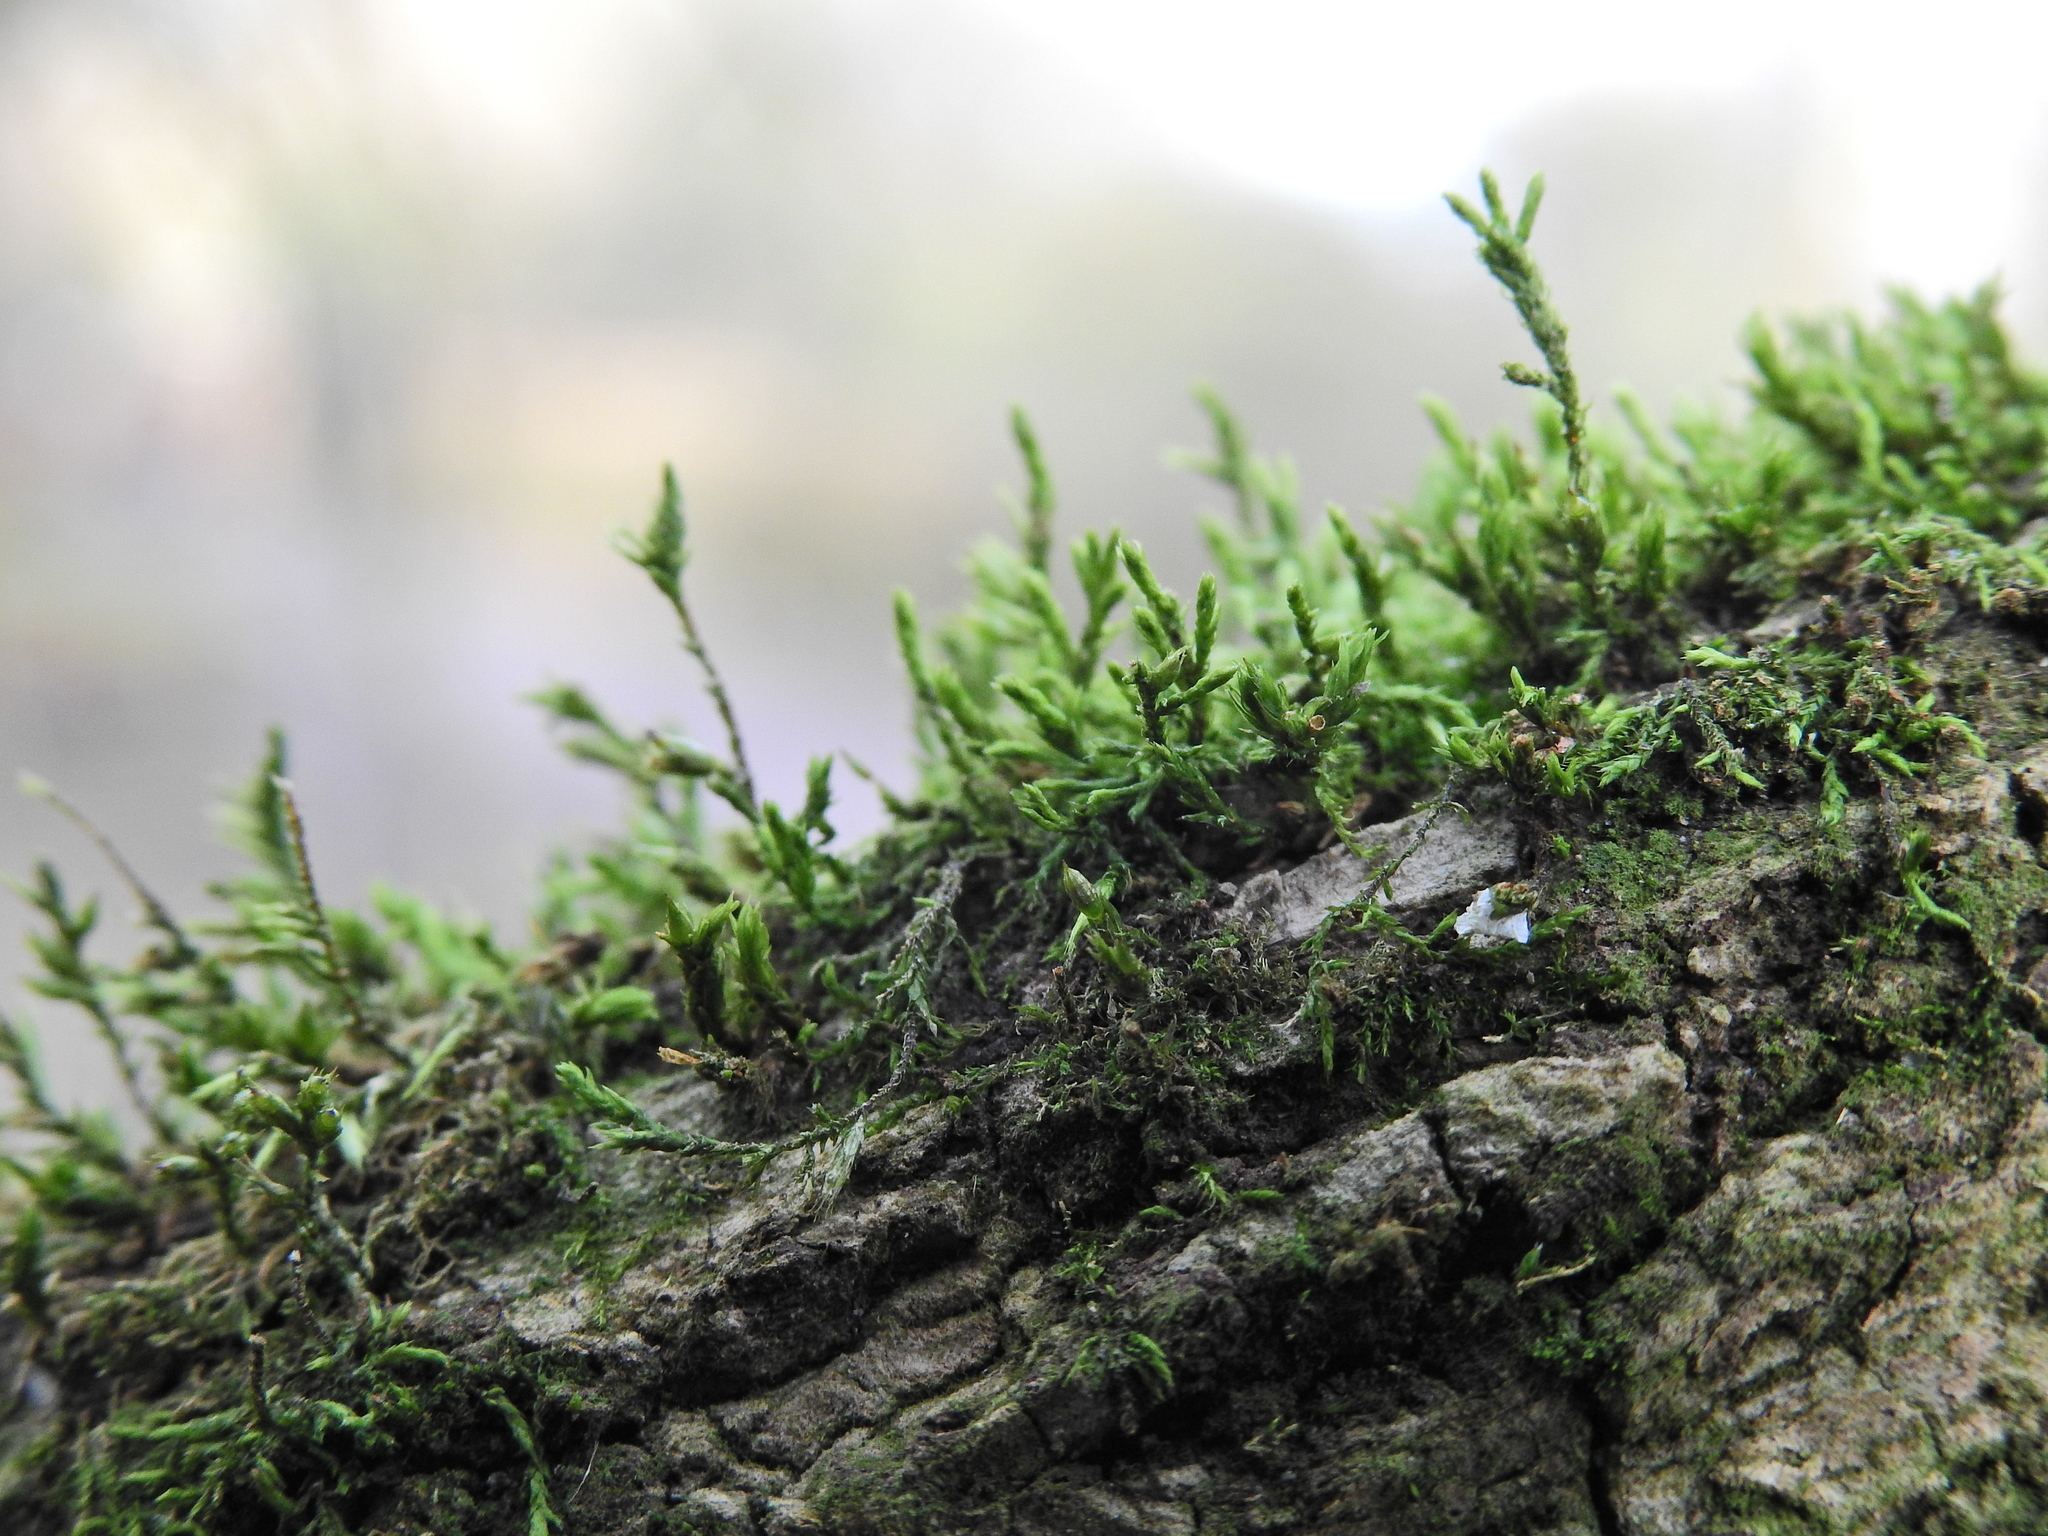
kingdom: Plantae
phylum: Bryophyta
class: Bryopsida
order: Hypnales
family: Cryphaeaceae
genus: Cryphaea
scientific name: Cryphaea heteromalla
